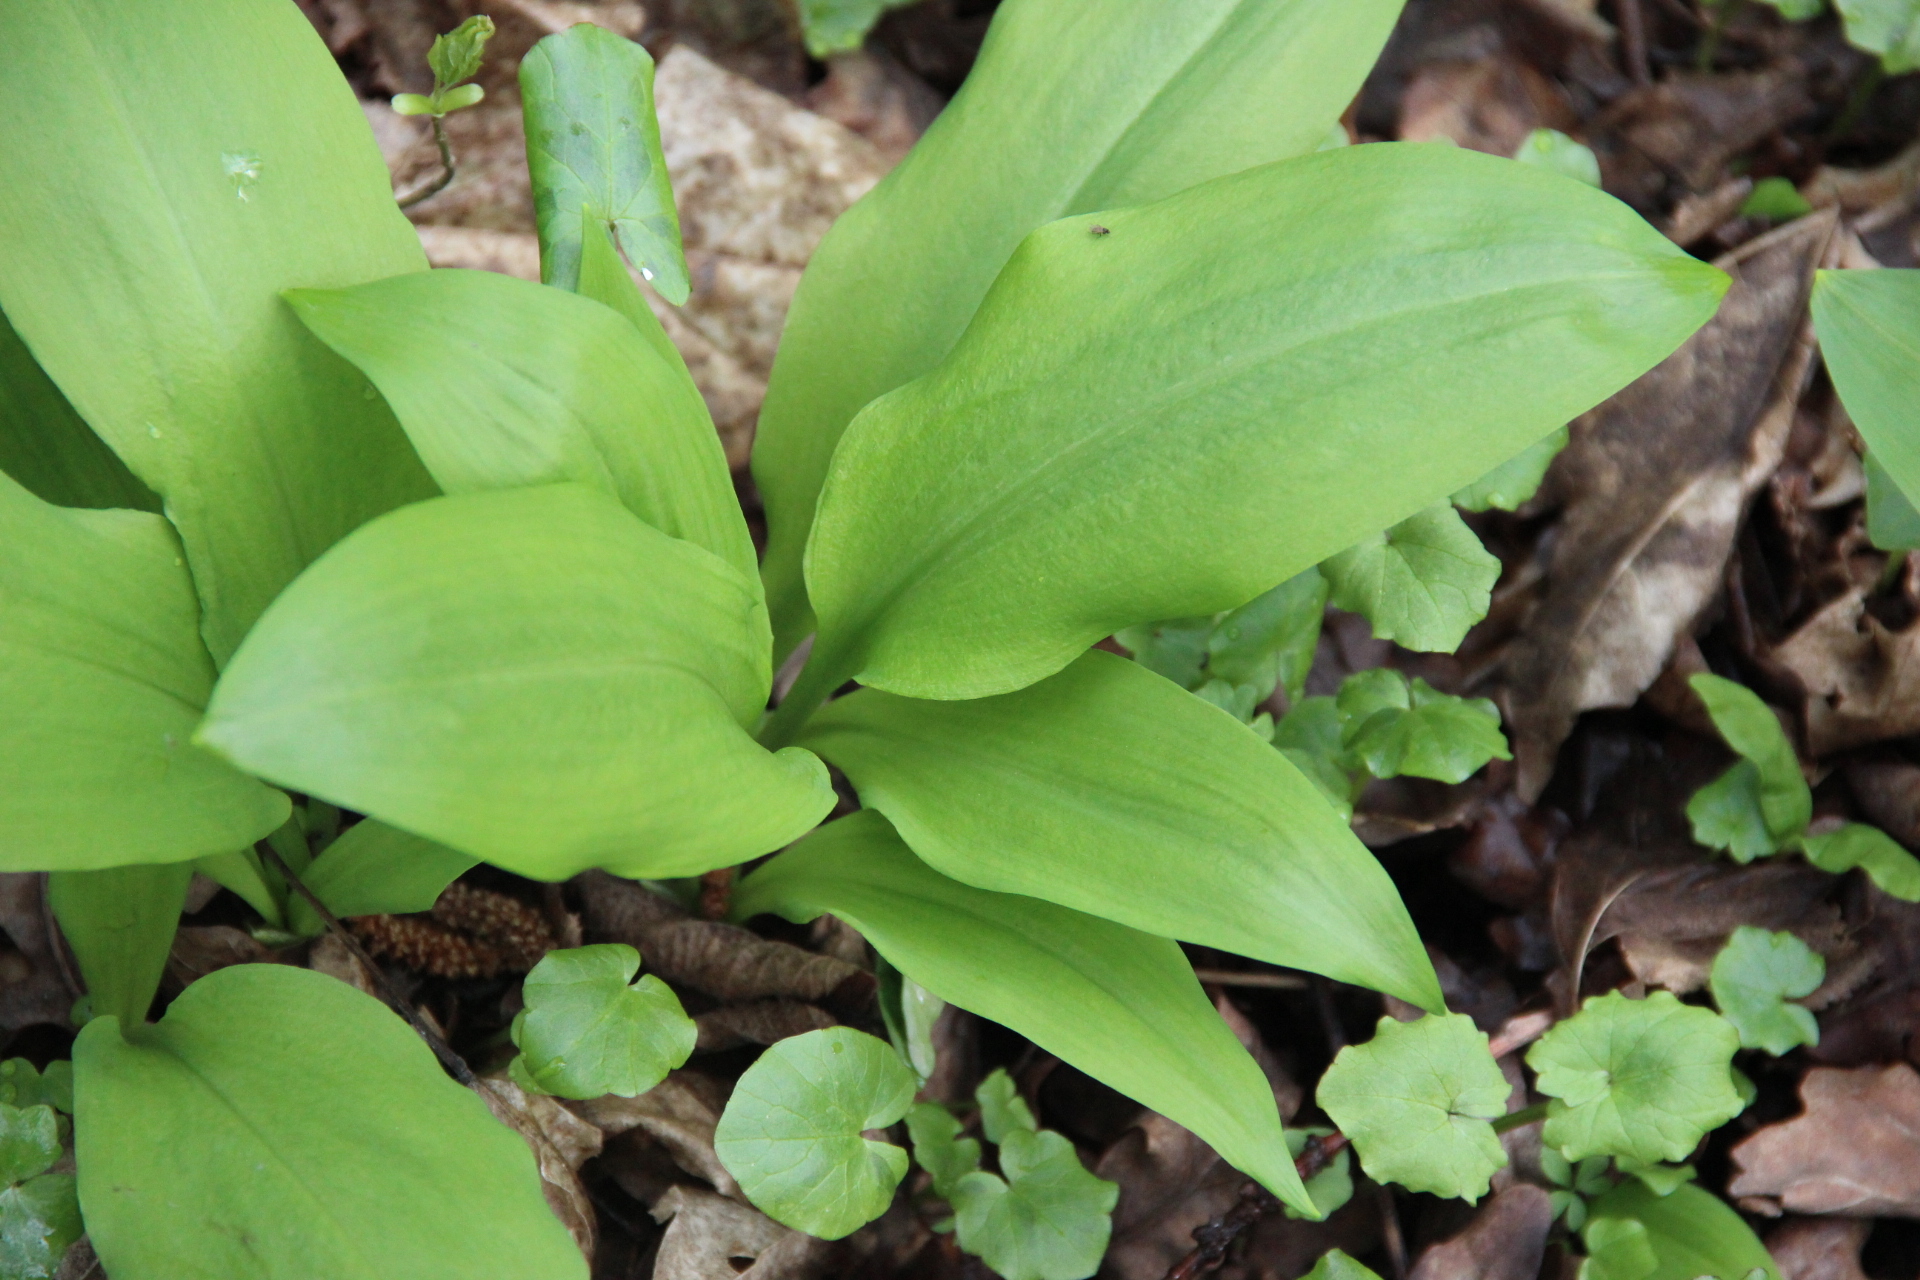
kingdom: Plantae
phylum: Tracheophyta
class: Liliopsida
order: Asparagales
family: Amaryllidaceae
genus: Allium
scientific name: Allium ursinum
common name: Ramsons
